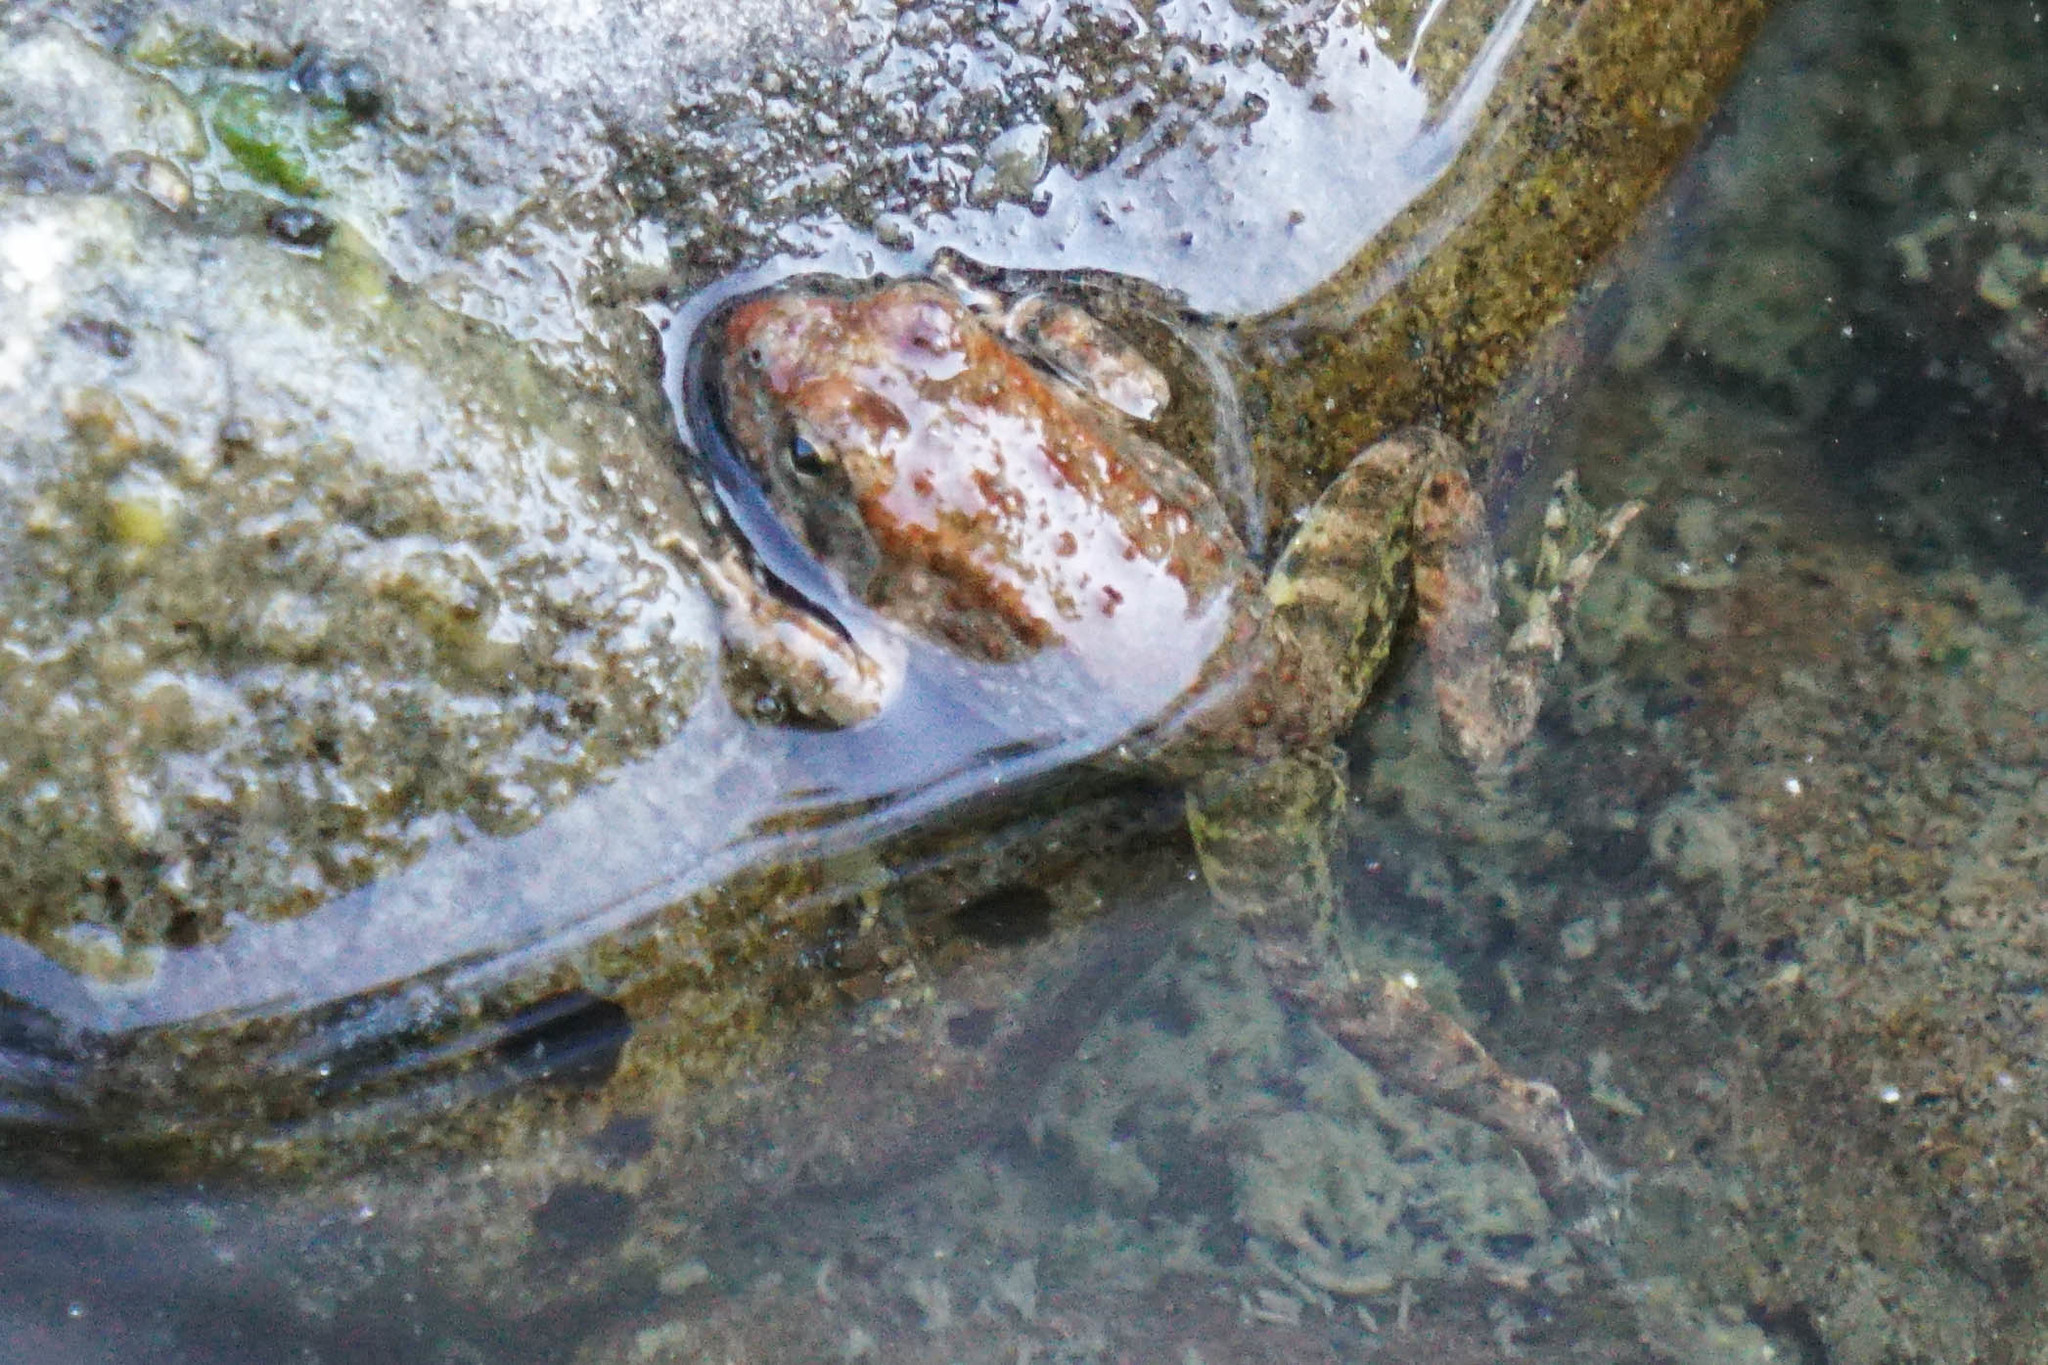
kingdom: Animalia
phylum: Chordata
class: Amphibia
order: Anura
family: Ranidae
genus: Rana
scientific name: Rana boylii
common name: Foothill yellow-legged frog
